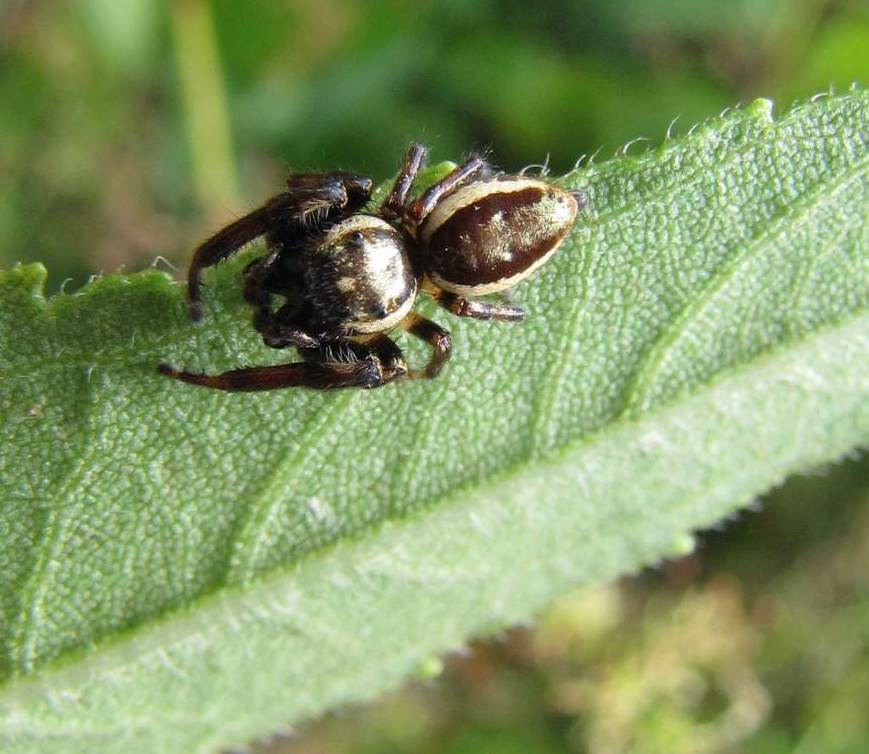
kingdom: Animalia
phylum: Arthropoda
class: Arachnida
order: Araneae
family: Salticidae
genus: Eris
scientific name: Eris militaris
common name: Bronze jumper
